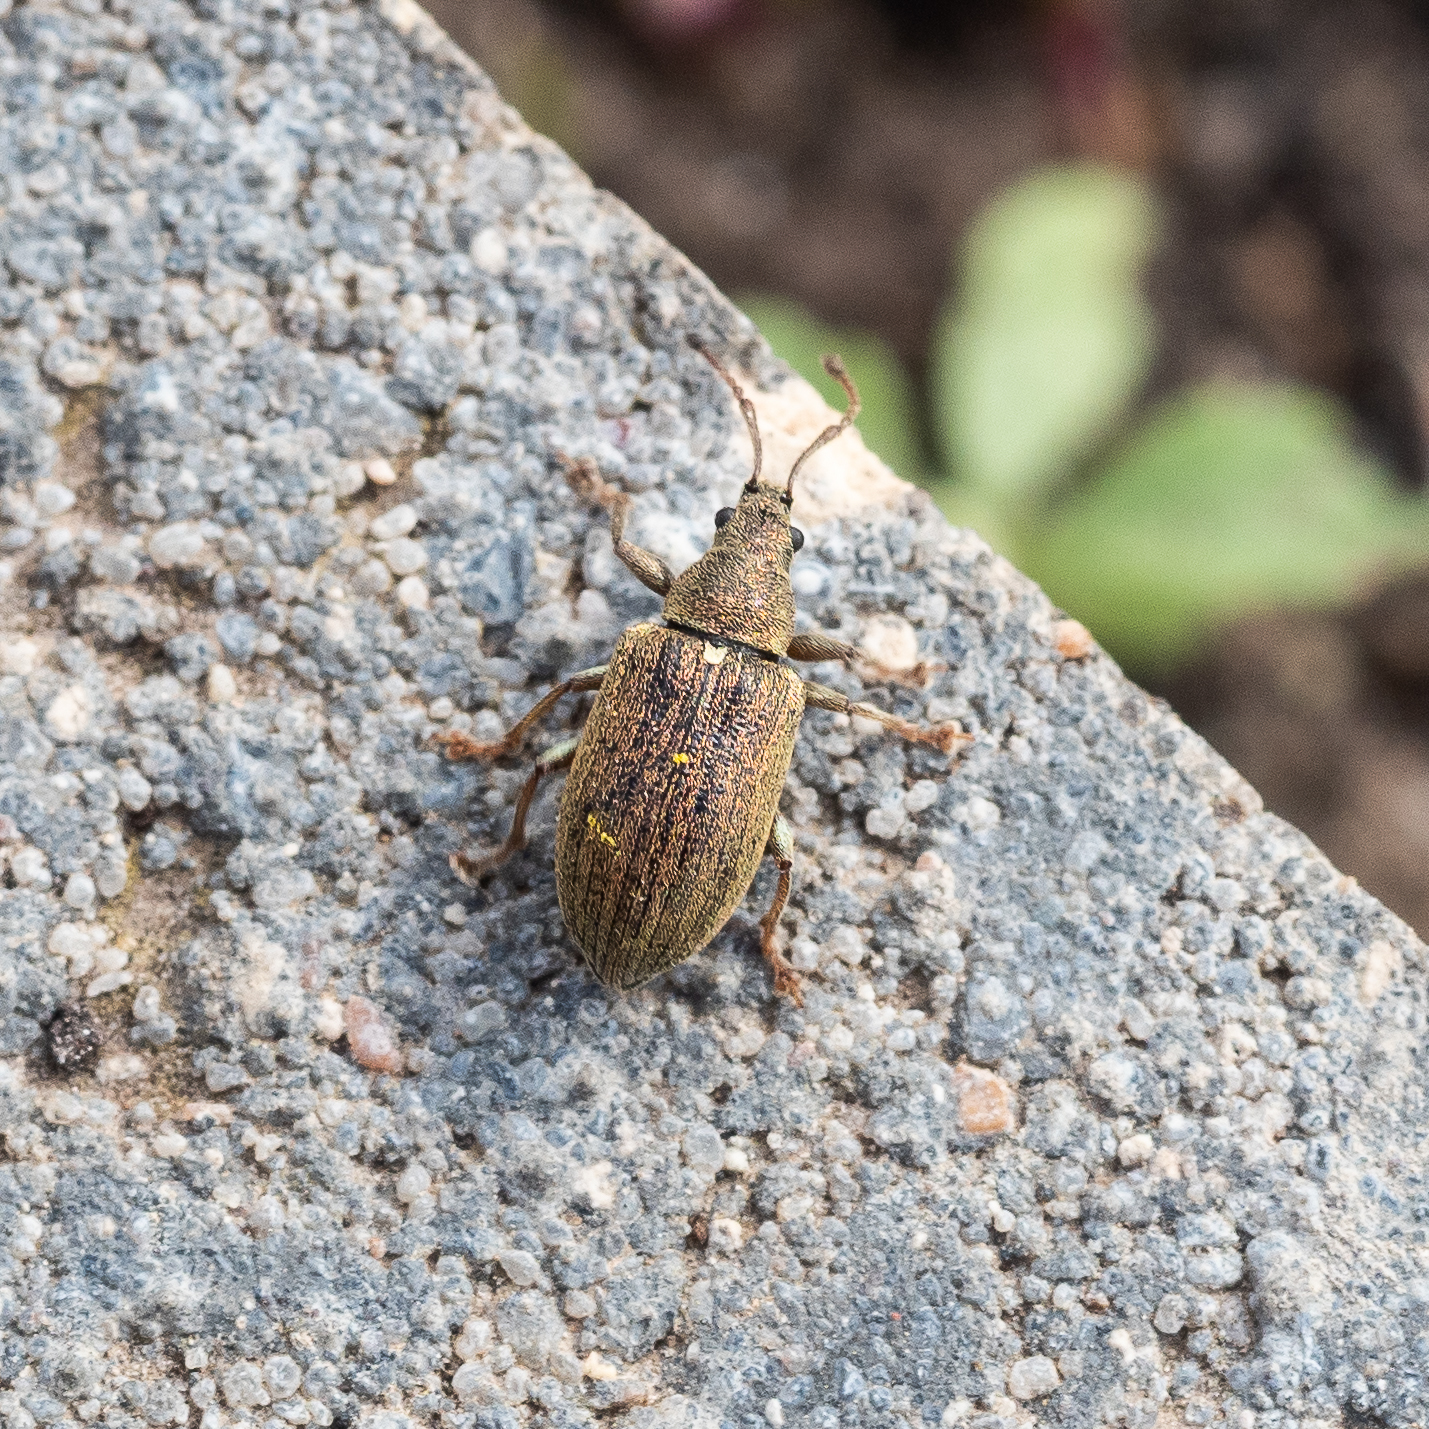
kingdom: Animalia
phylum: Arthropoda
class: Insecta
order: Coleoptera
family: Curculionidae
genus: Phyllobius
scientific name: Phyllobius pyri
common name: Common leaf weevil
